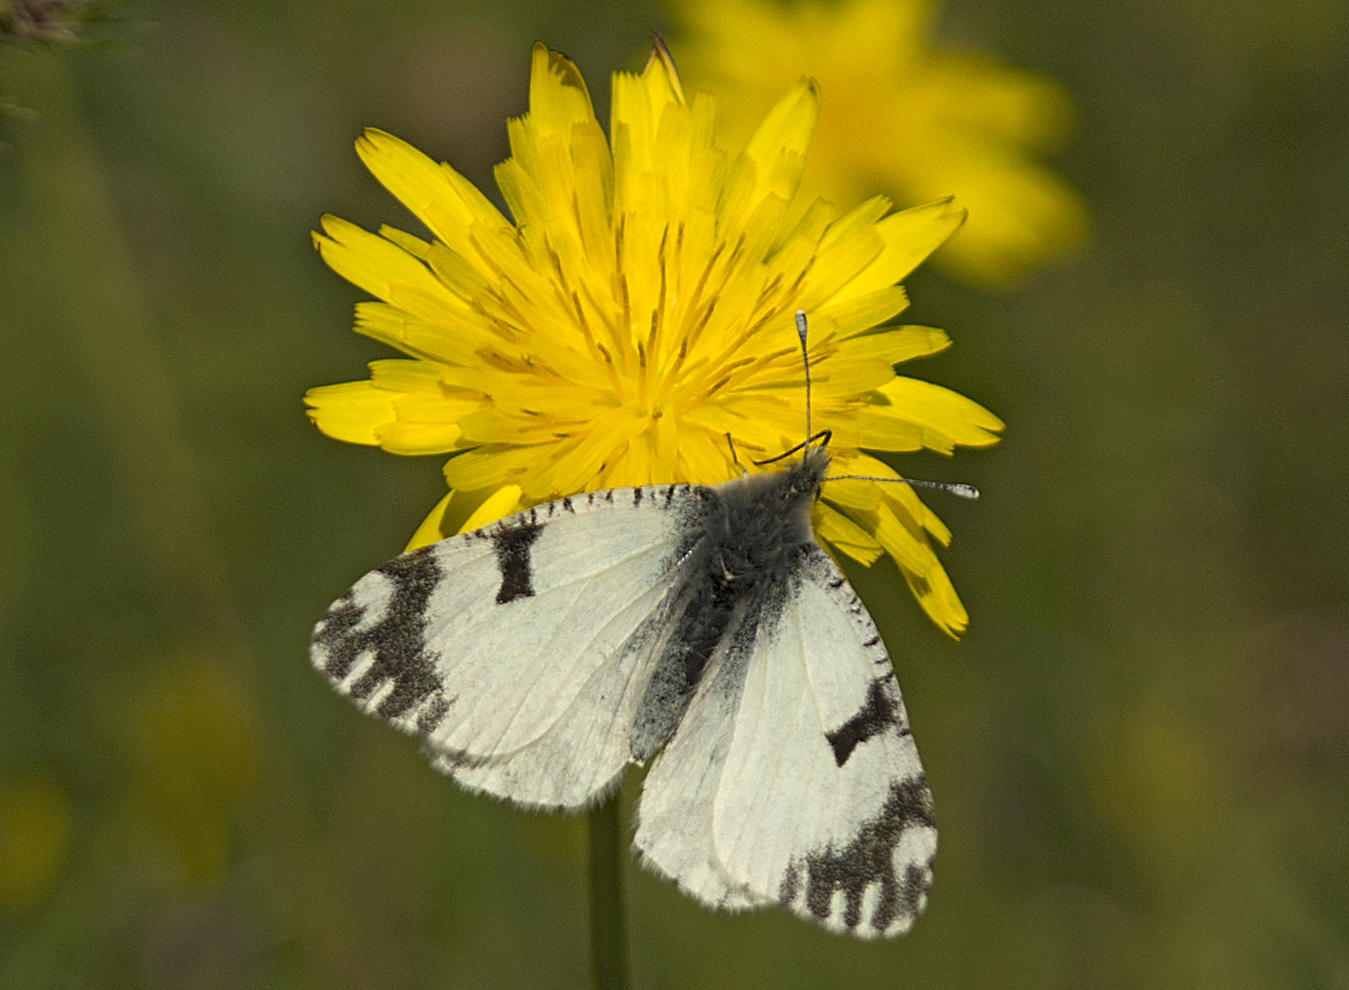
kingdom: Animalia
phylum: Arthropoda
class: Insecta
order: Lepidoptera
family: Pieridae
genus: Euchloe
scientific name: Euchloe ausonia
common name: Eastern dappled white
